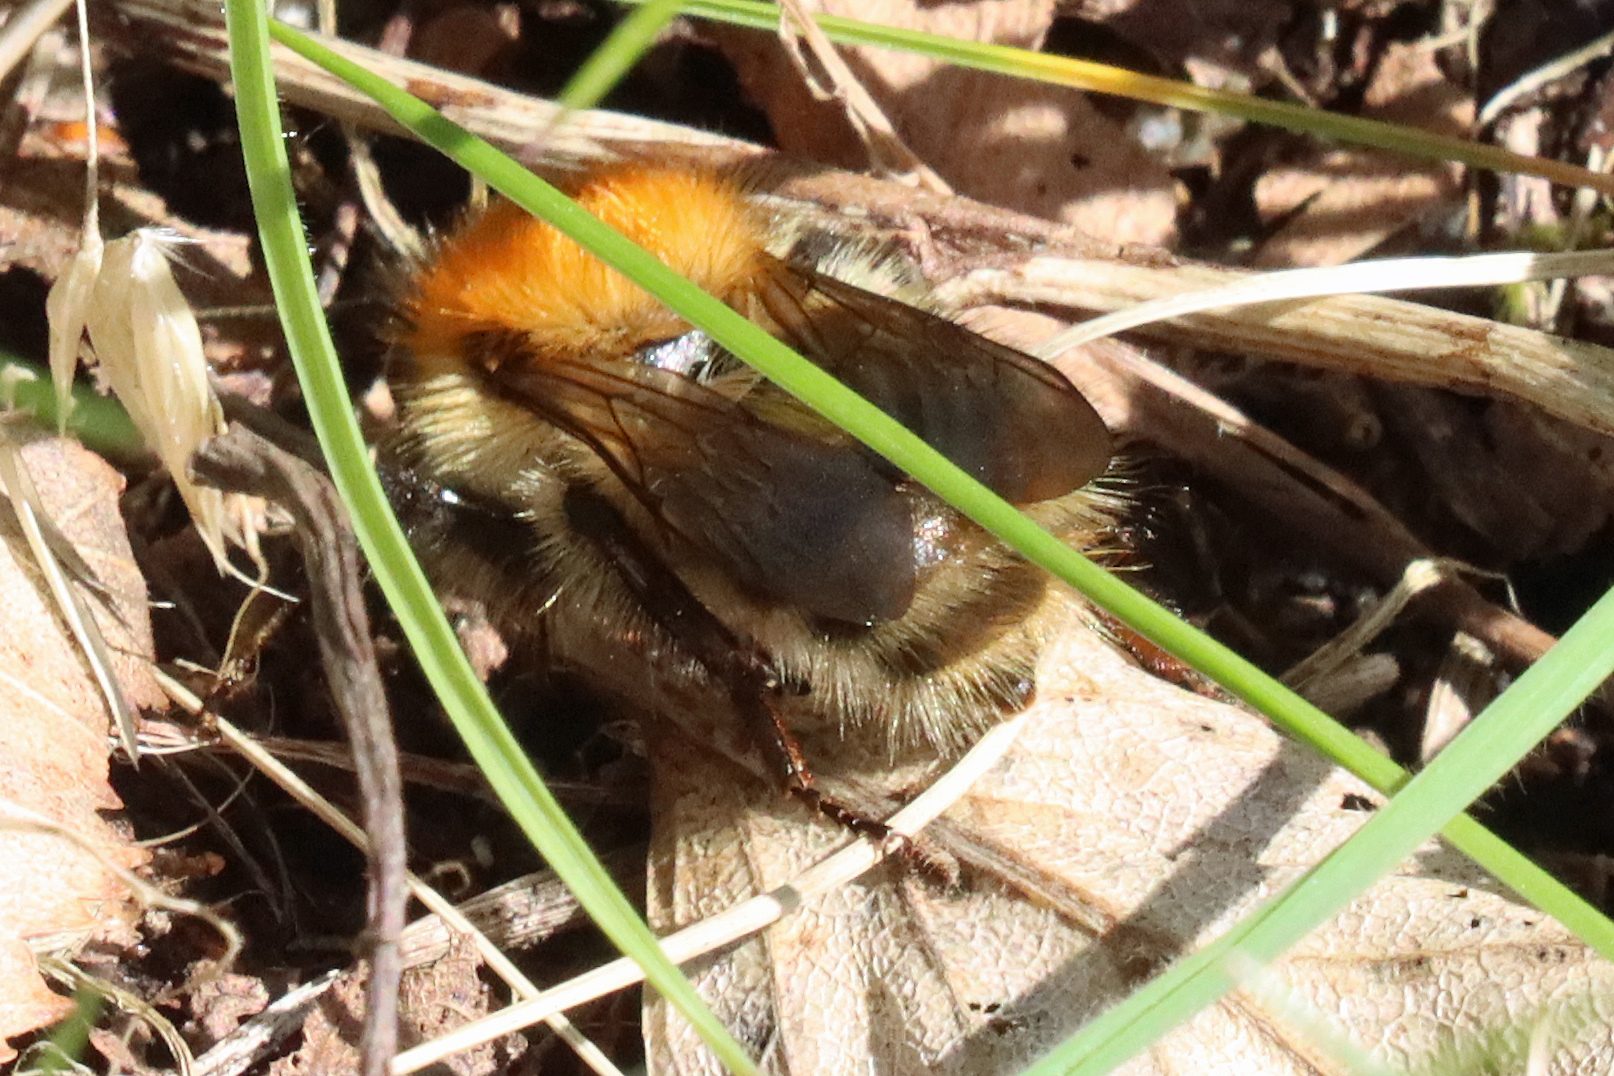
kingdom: Animalia
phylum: Arthropoda
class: Insecta
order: Hymenoptera
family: Apidae
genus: Bombus
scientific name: Bombus pascuorum
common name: Common carder bee
